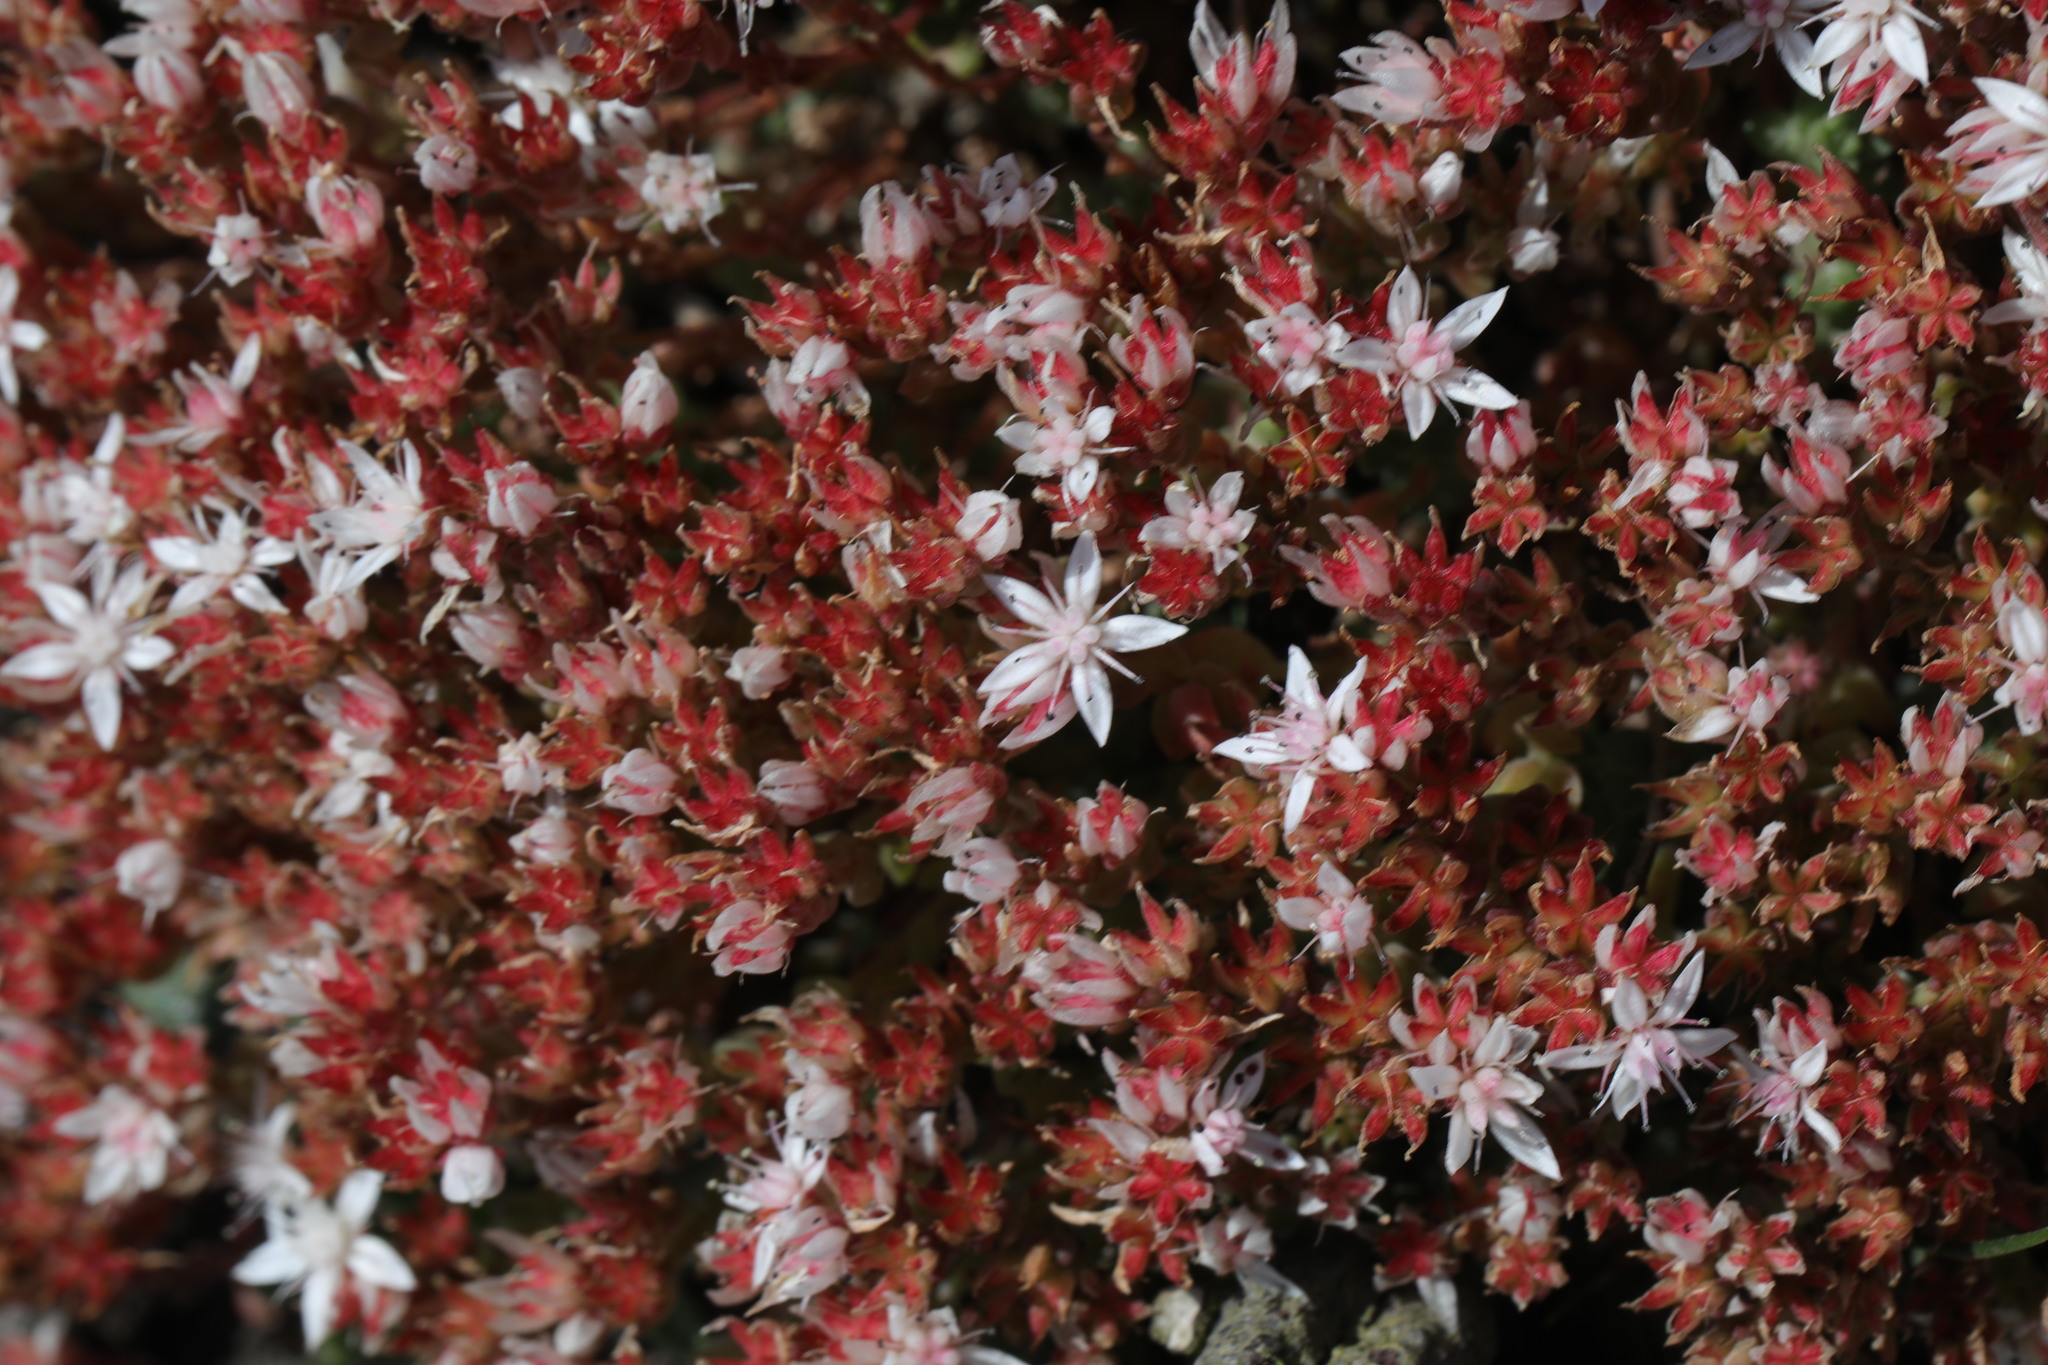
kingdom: Plantae
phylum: Tracheophyta
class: Magnoliopsida
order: Saxifragales
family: Crassulaceae
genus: Sedum
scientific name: Sedum anglicum
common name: English stonecrop
